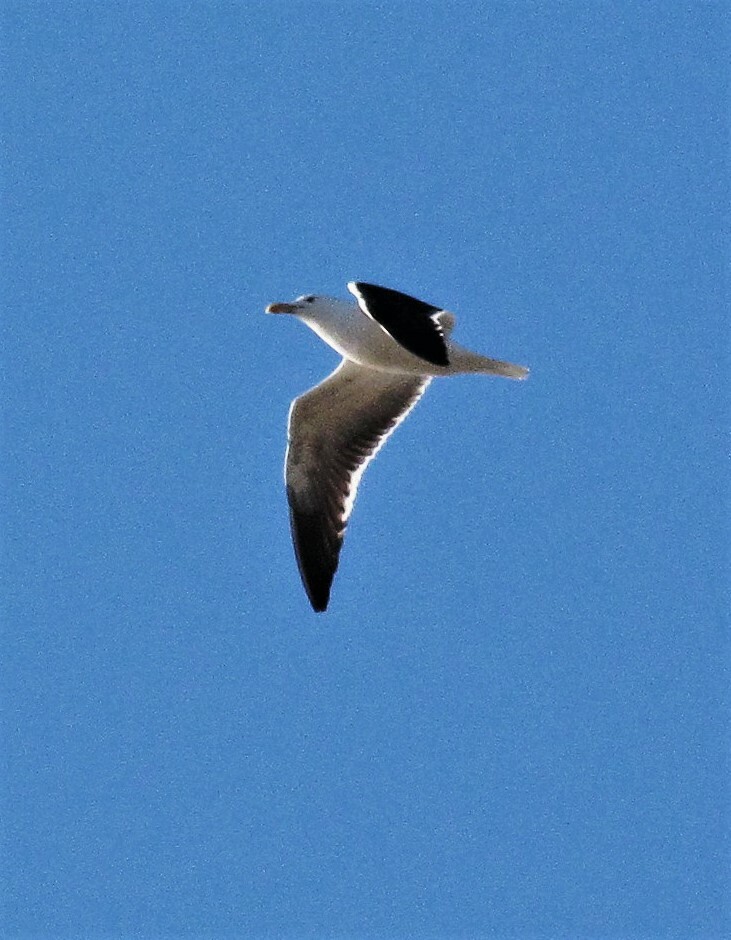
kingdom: Animalia
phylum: Chordata
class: Aves
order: Charadriiformes
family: Laridae
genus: Larus
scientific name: Larus dominicanus
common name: Kelp gull
